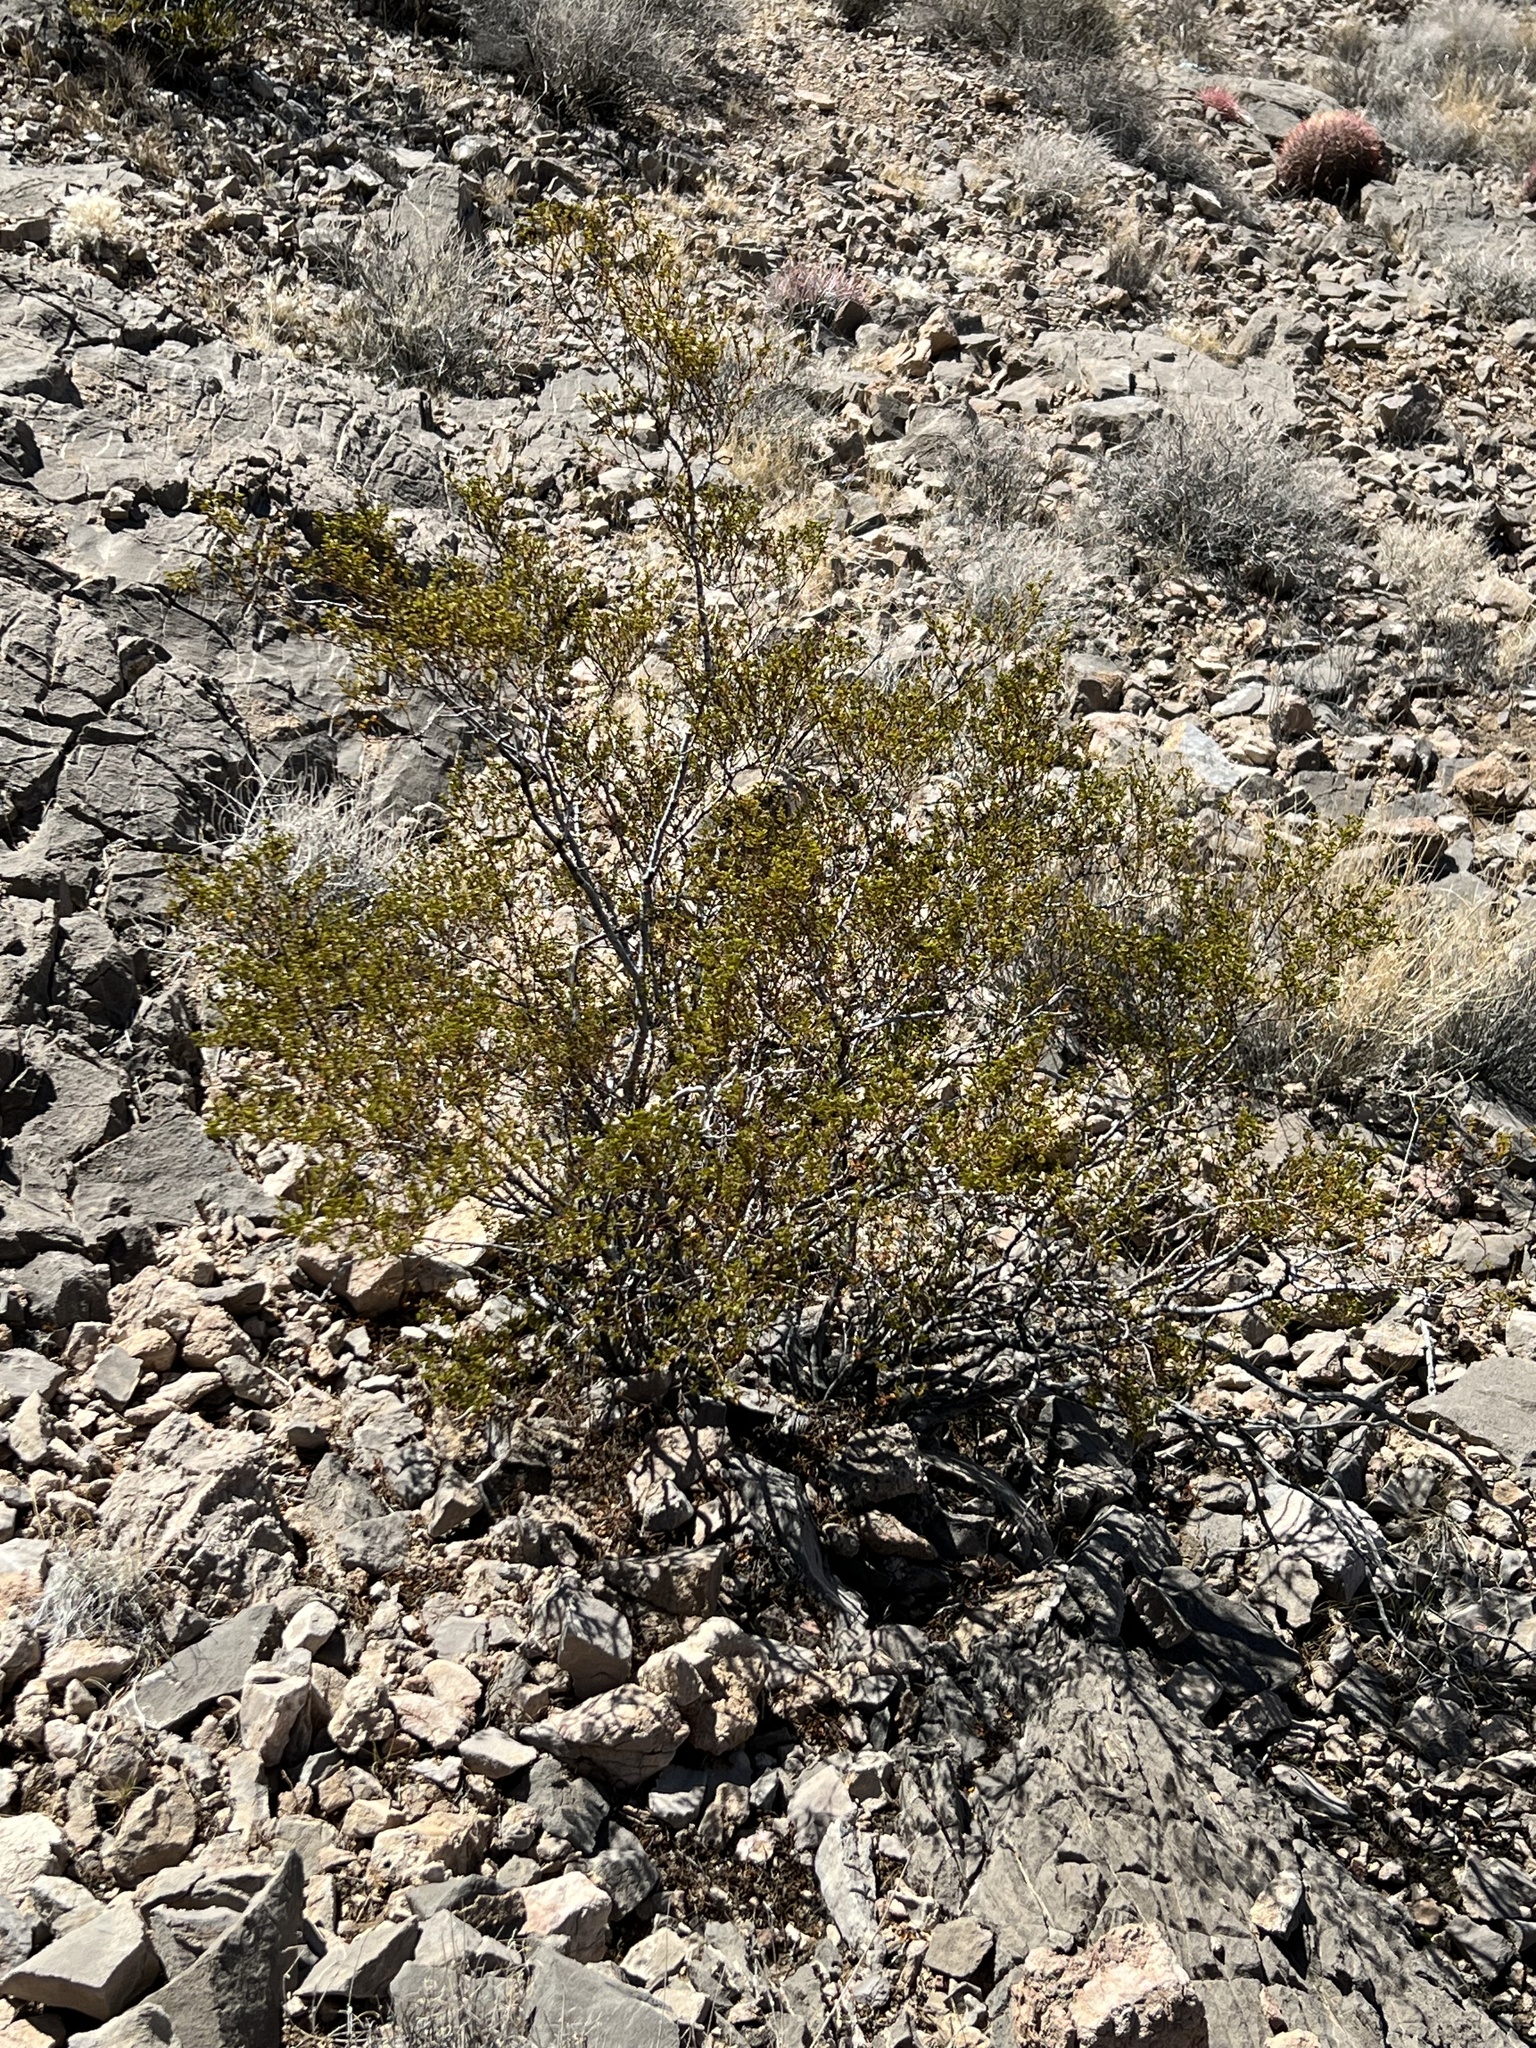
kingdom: Plantae
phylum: Tracheophyta
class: Magnoliopsida
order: Zygophyllales
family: Zygophyllaceae
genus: Larrea
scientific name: Larrea tridentata
